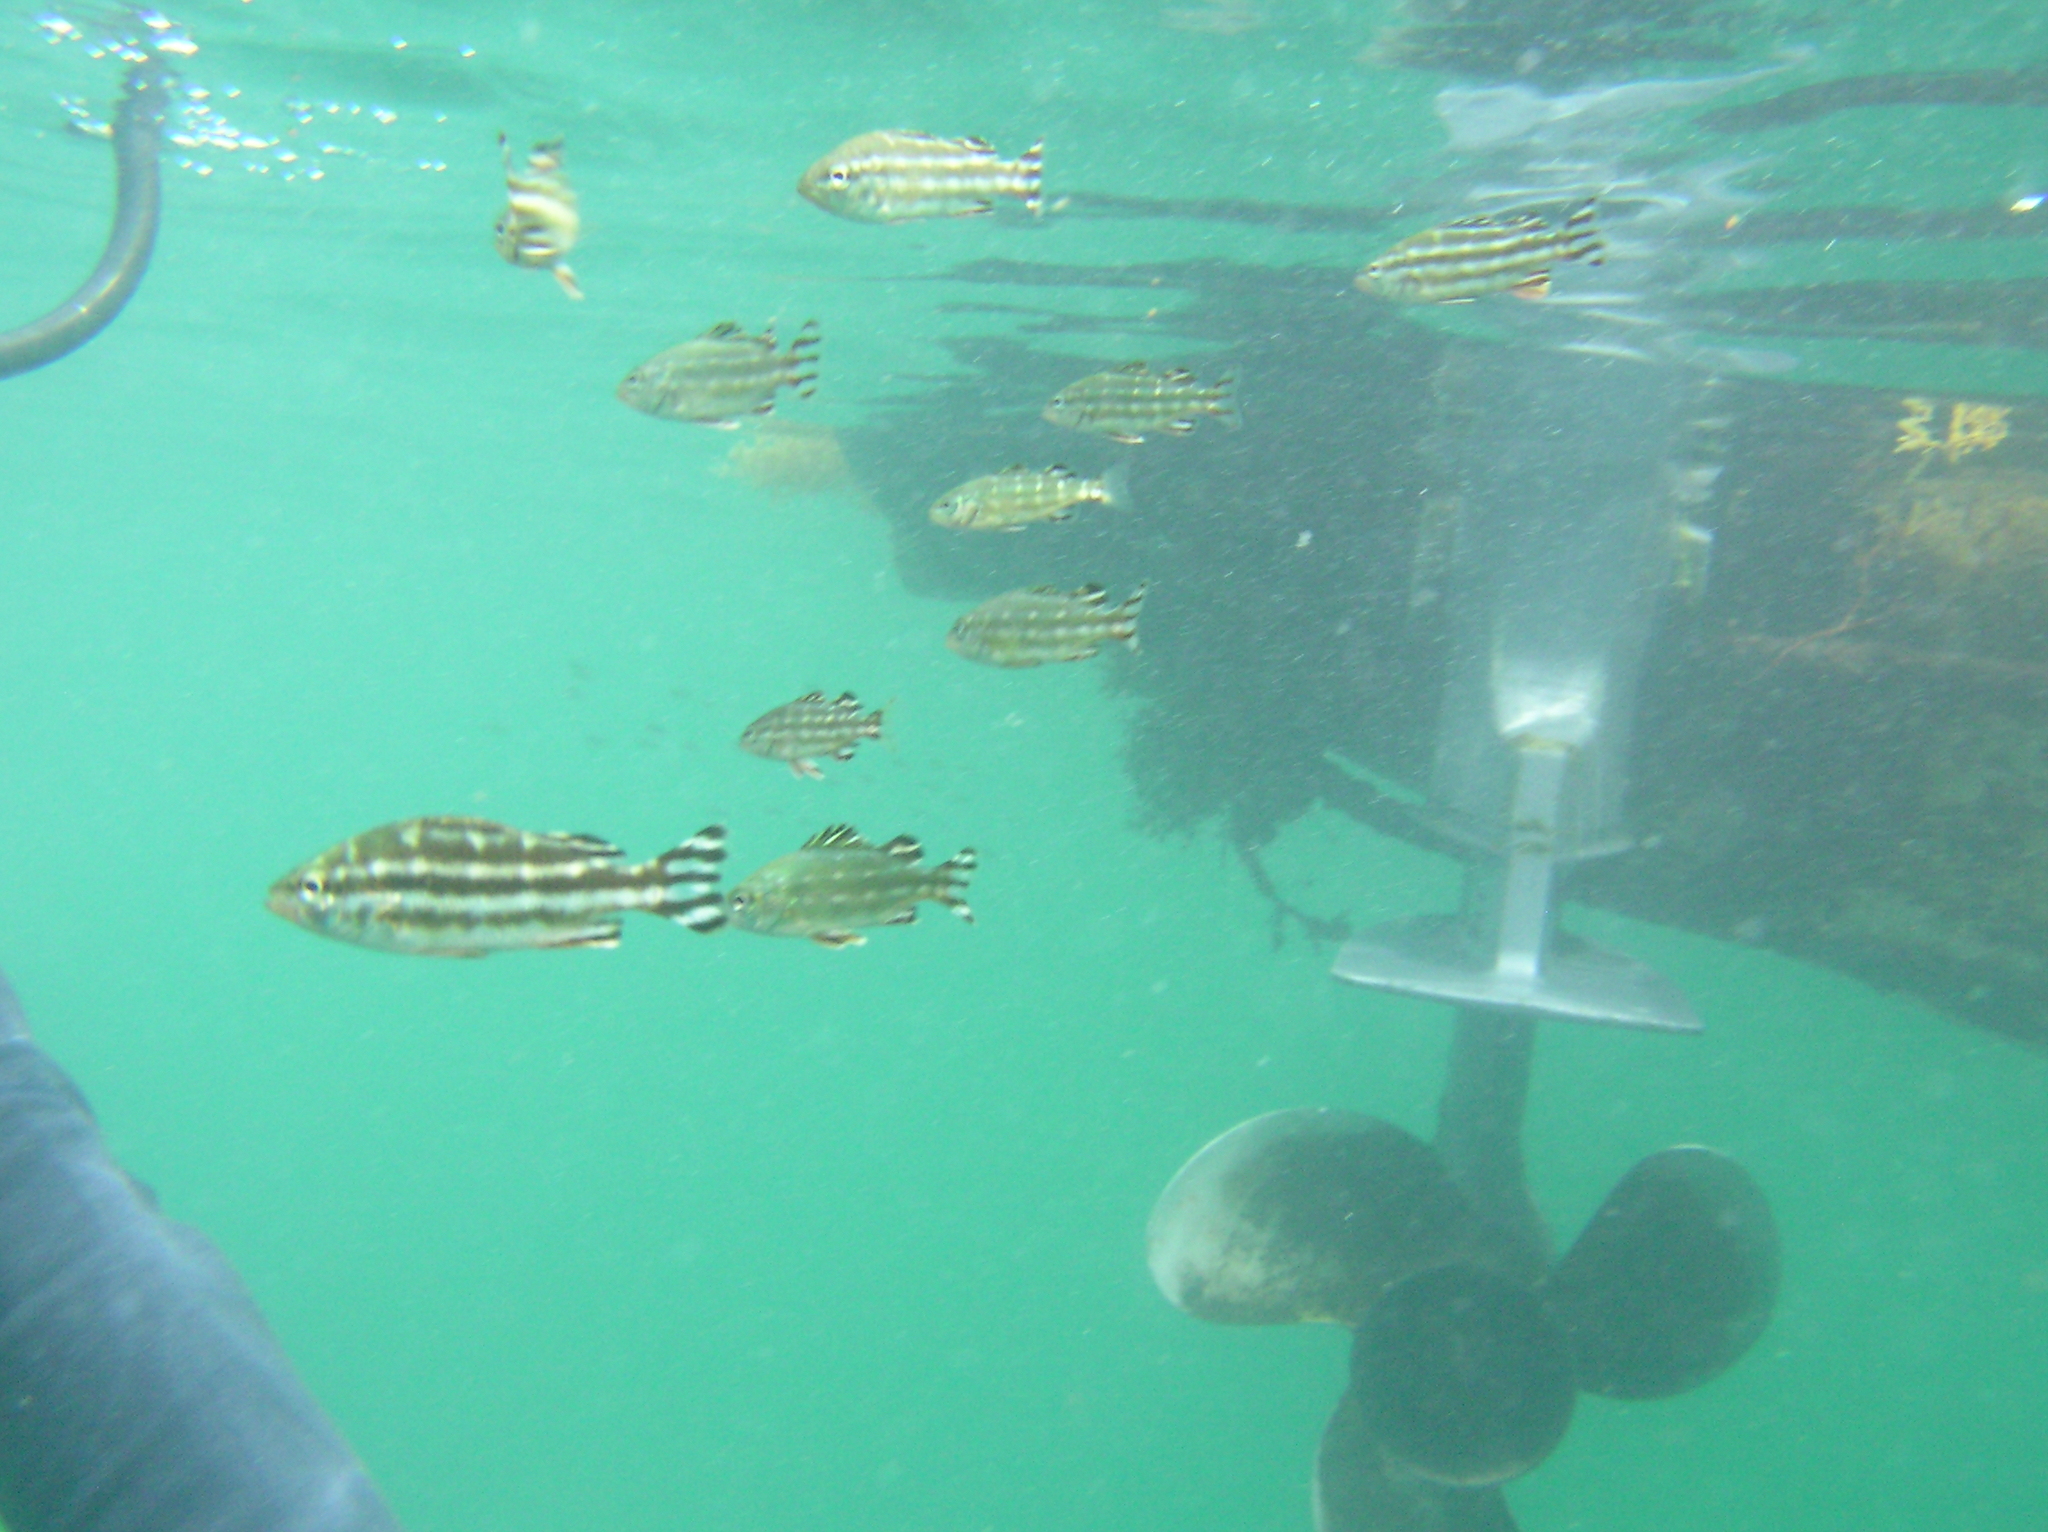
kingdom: Animalia
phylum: Chordata
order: Perciformes
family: Terapontidae
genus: Terapon
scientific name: Terapon theraps
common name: Largescaled therapon
